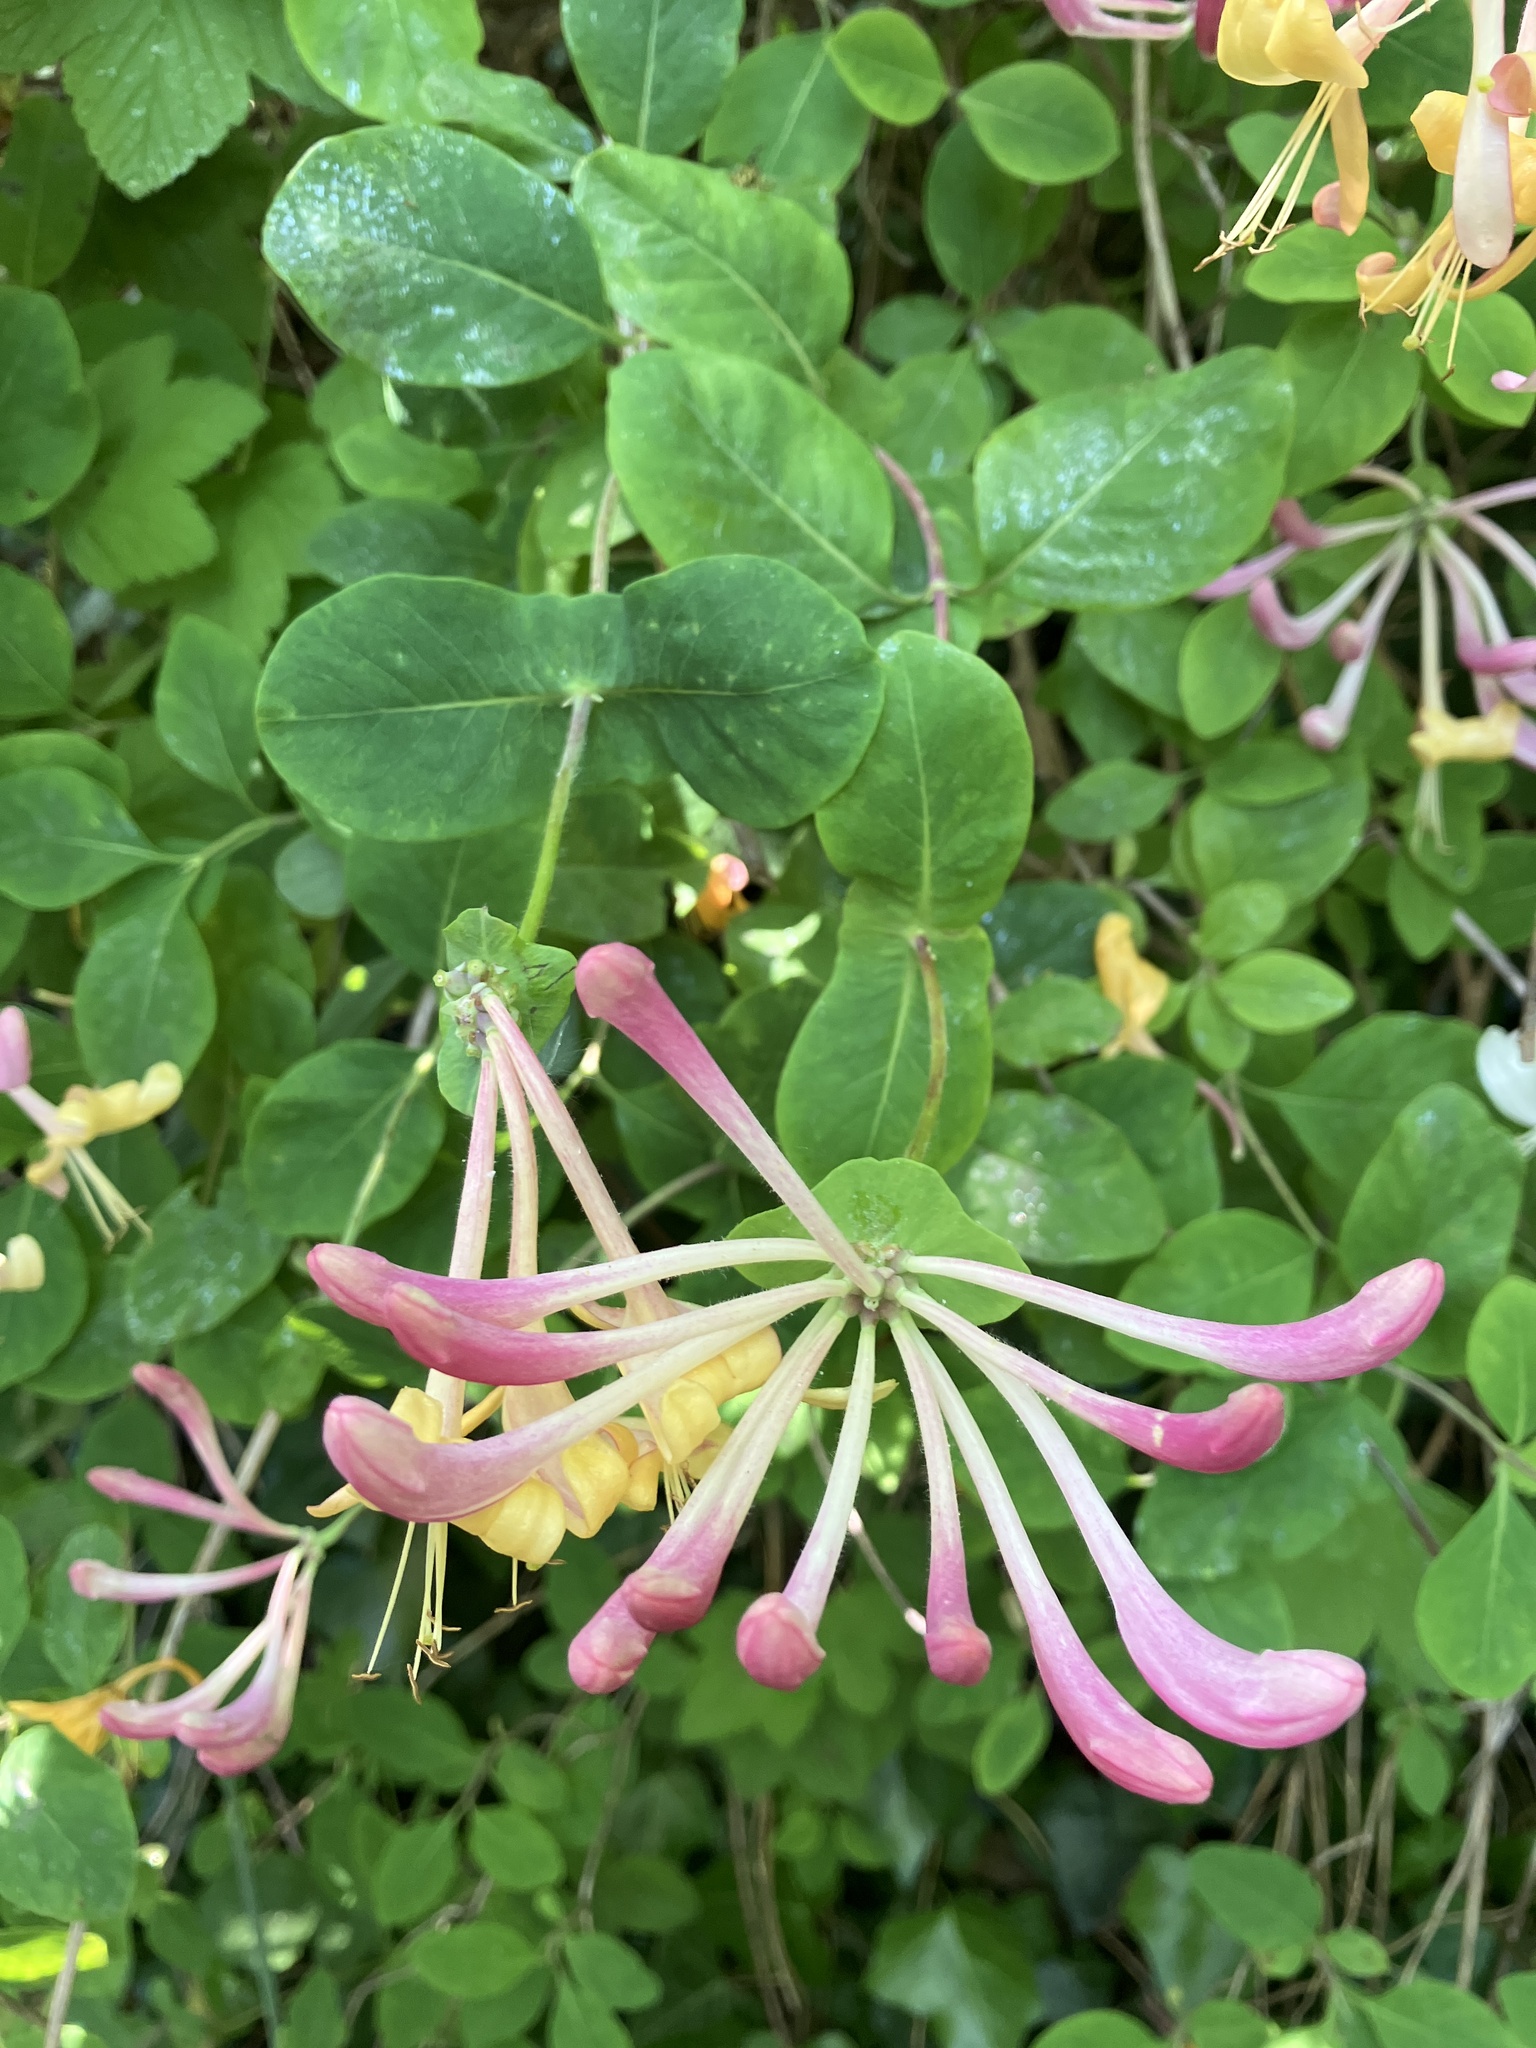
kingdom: Plantae
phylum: Tracheophyta
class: Magnoliopsida
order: Dipsacales
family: Caprifoliaceae
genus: Lonicera
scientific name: Lonicera periclymenum
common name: European honeysuckle
